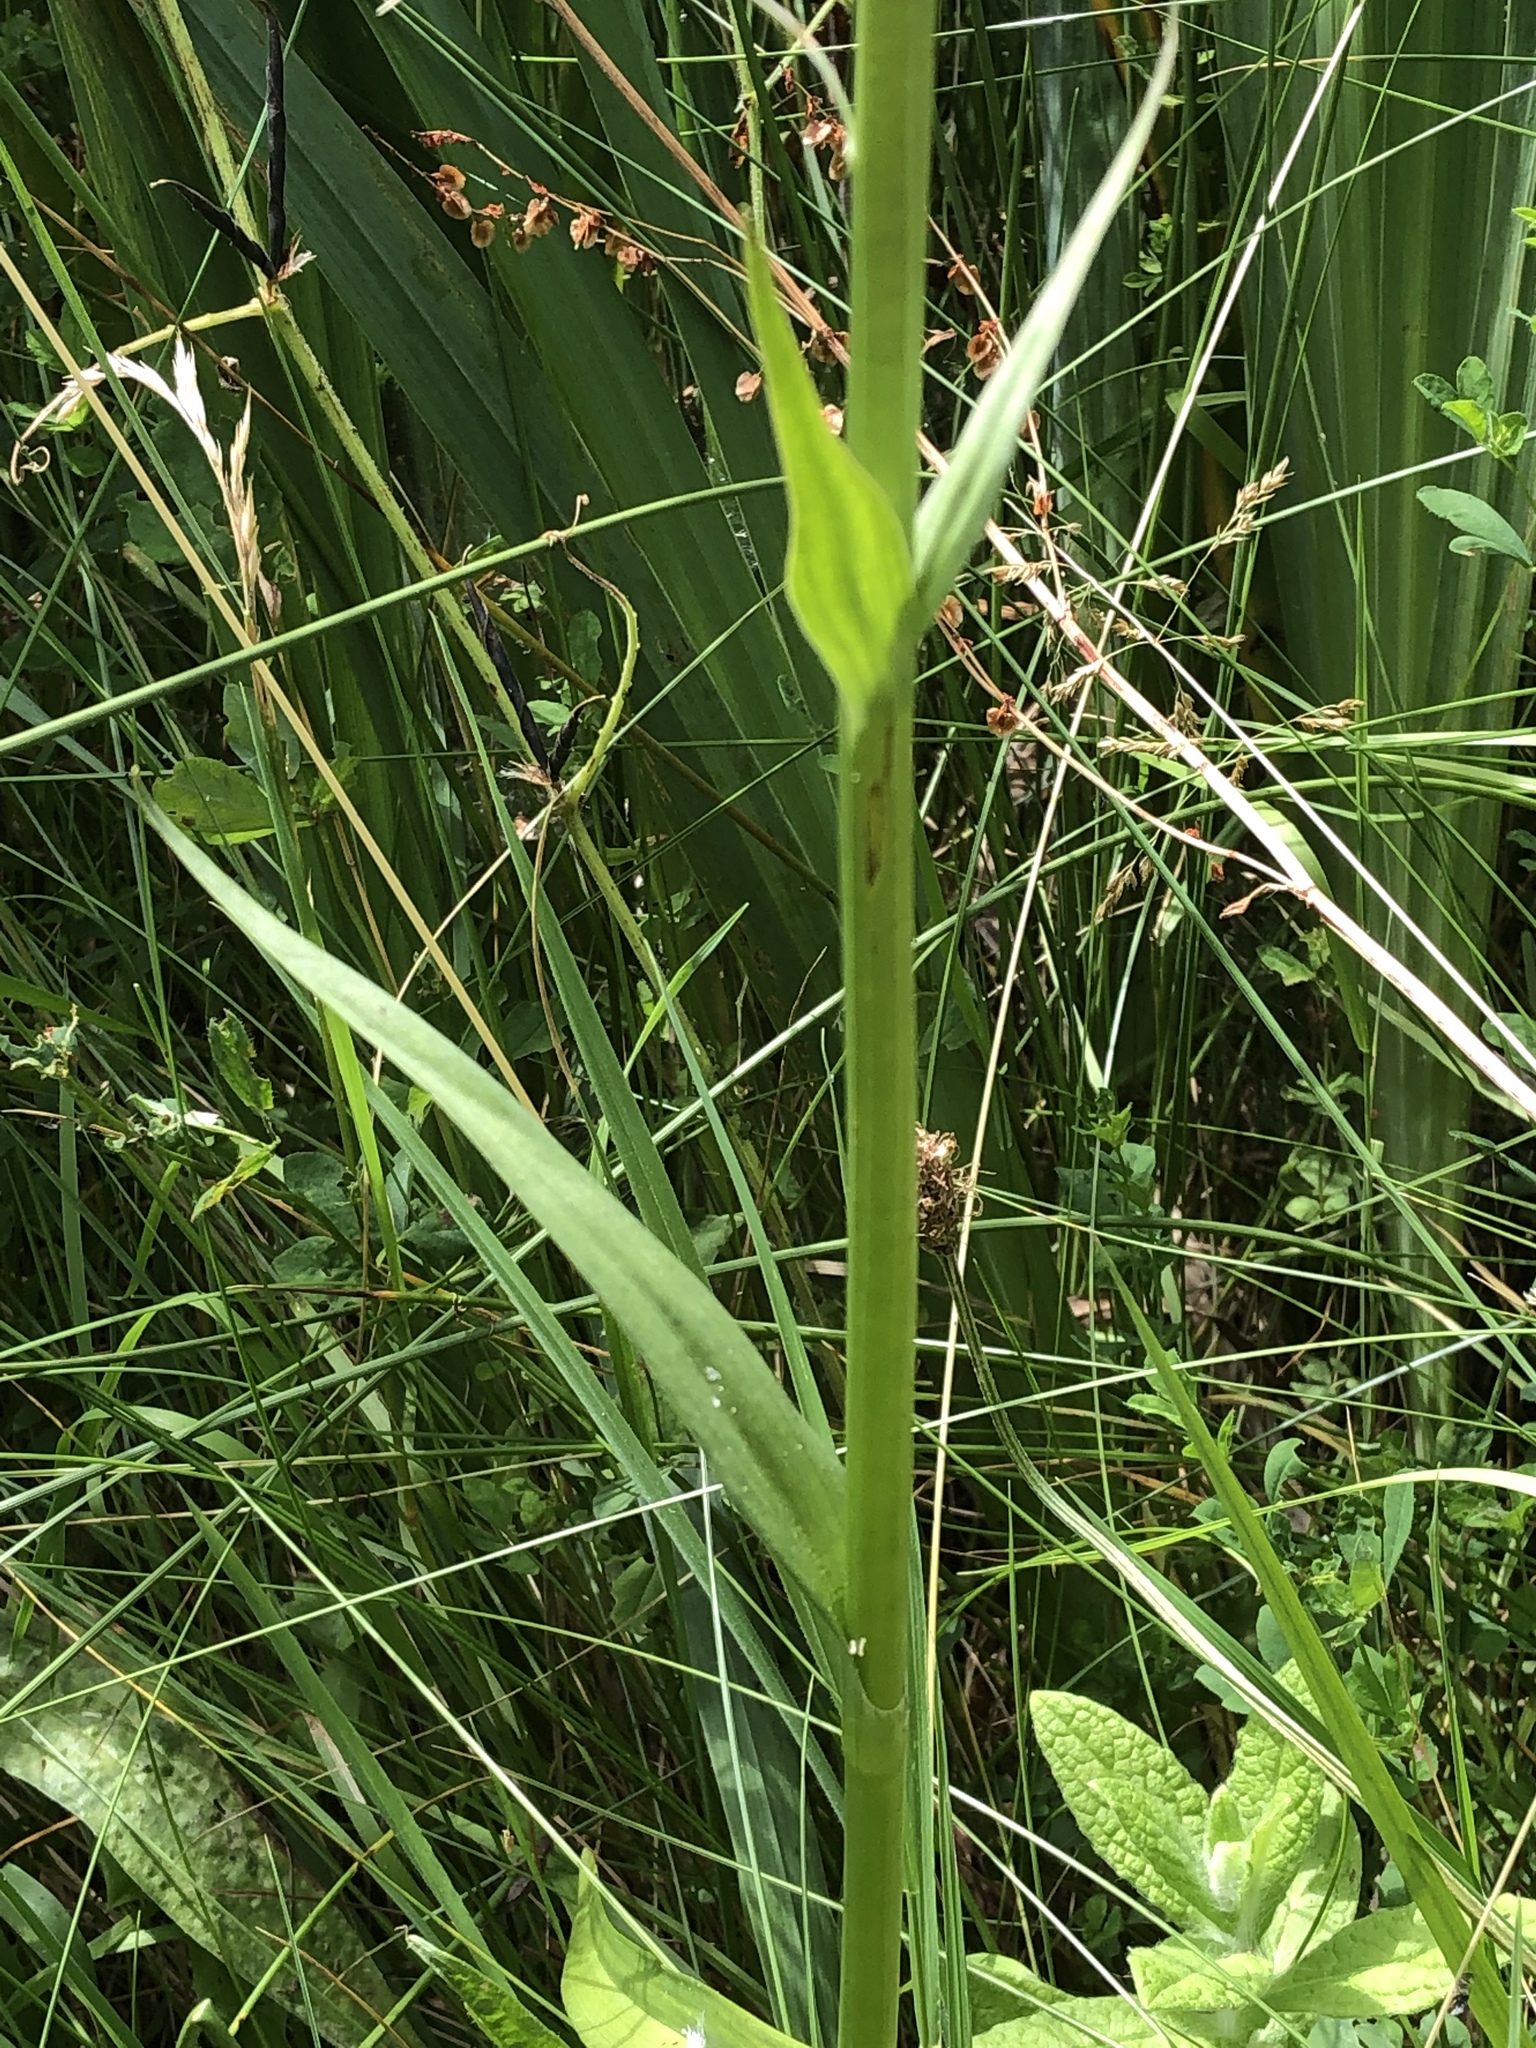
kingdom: Plantae
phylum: Tracheophyta
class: Liliopsida
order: Asparagales
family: Orchidaceae
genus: Dactylorhiza
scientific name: Dactylorhiza majalis
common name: Marsh orchid
